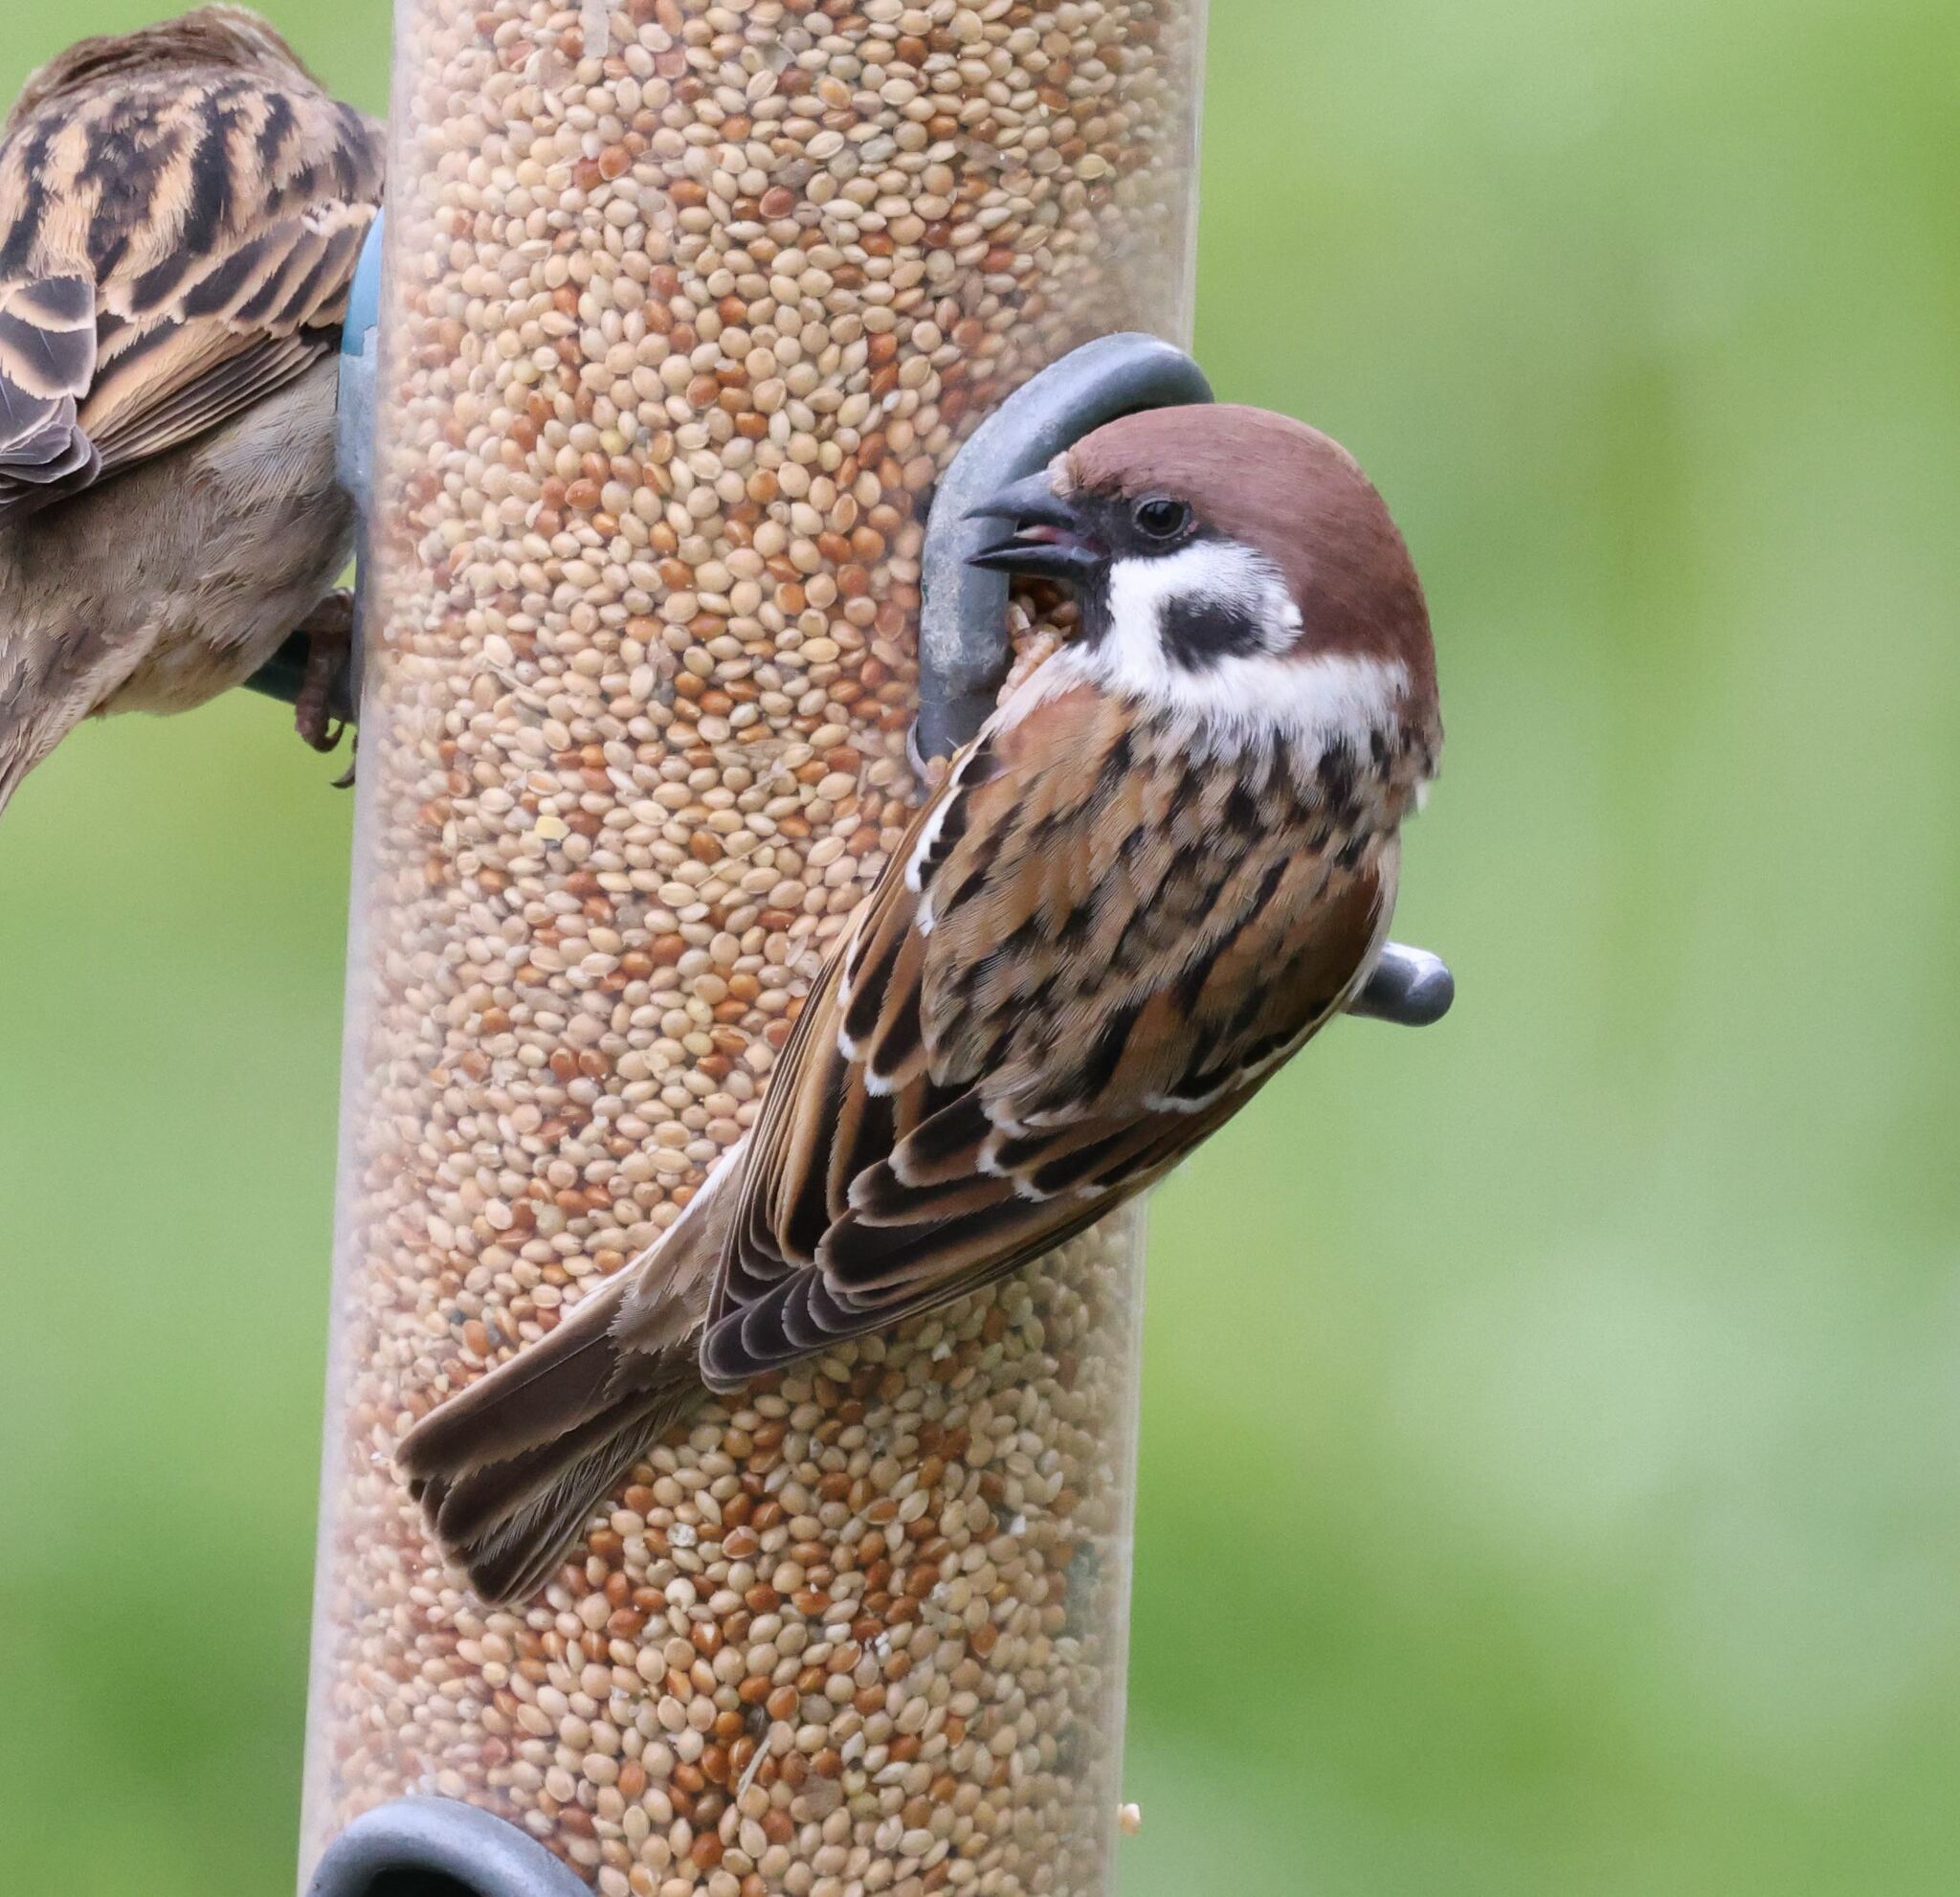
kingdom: Animalia
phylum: Chordata
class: Aves
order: Passeriformes
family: Passeridae
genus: Passer
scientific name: Passer montanus
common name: Eurasian tree sparrow
